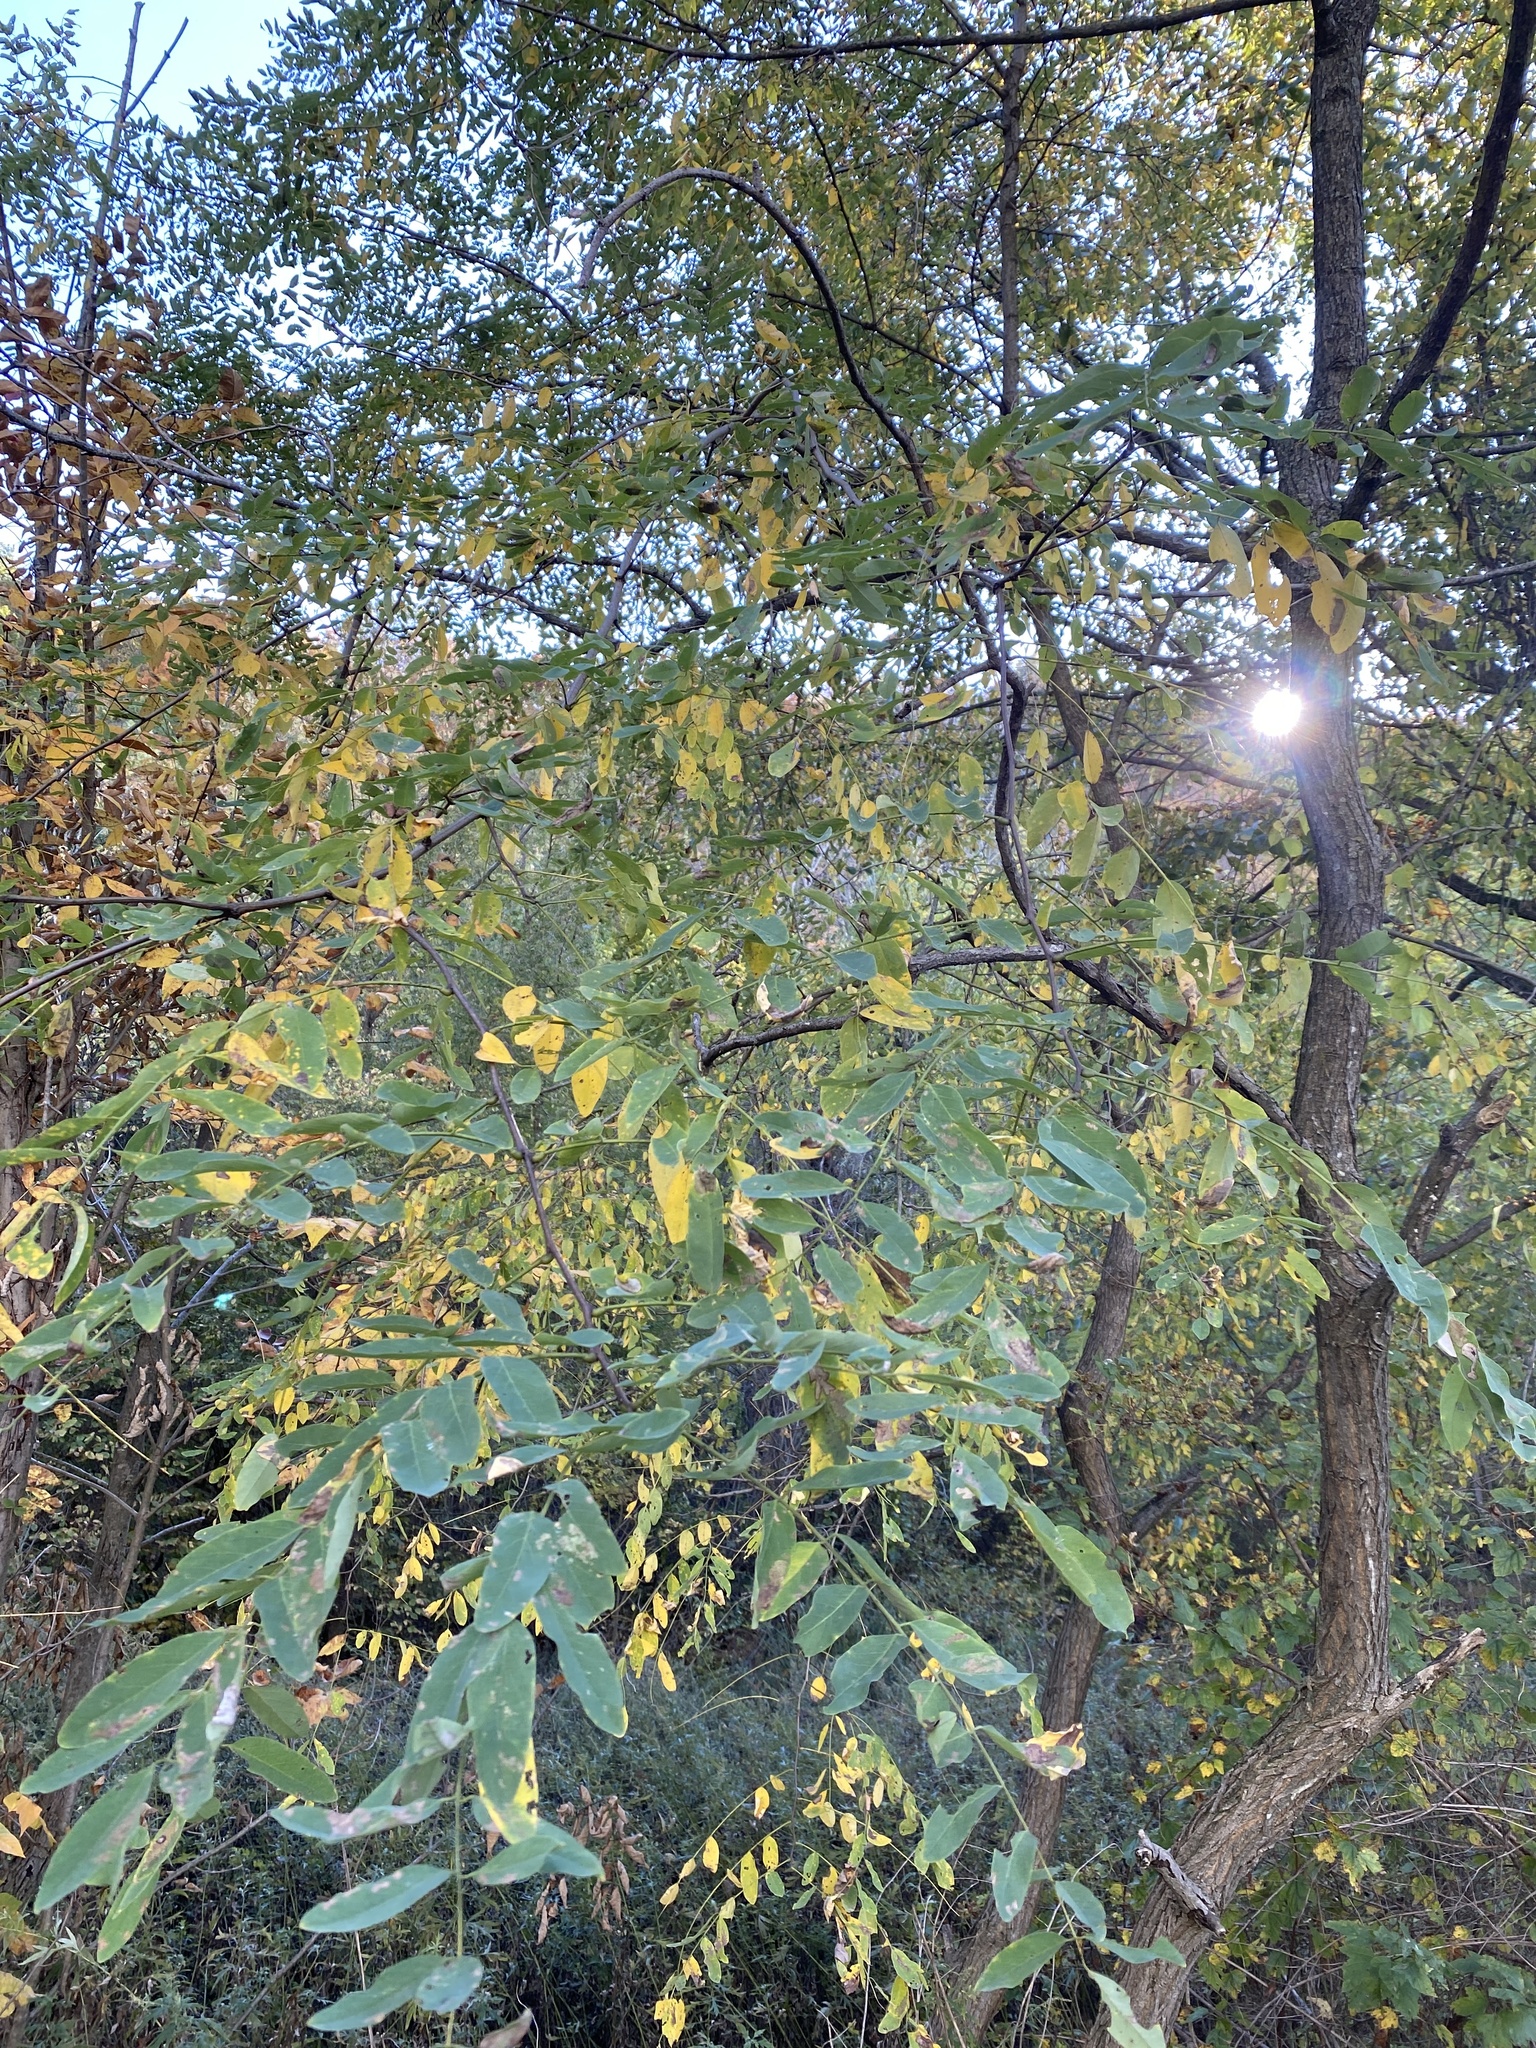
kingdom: Plantae
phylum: Tracheophyta
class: Magnoliopsida
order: Fabales
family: Fabaceae
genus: Robinia
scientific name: Robinia pseudoacacia
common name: Black locust
